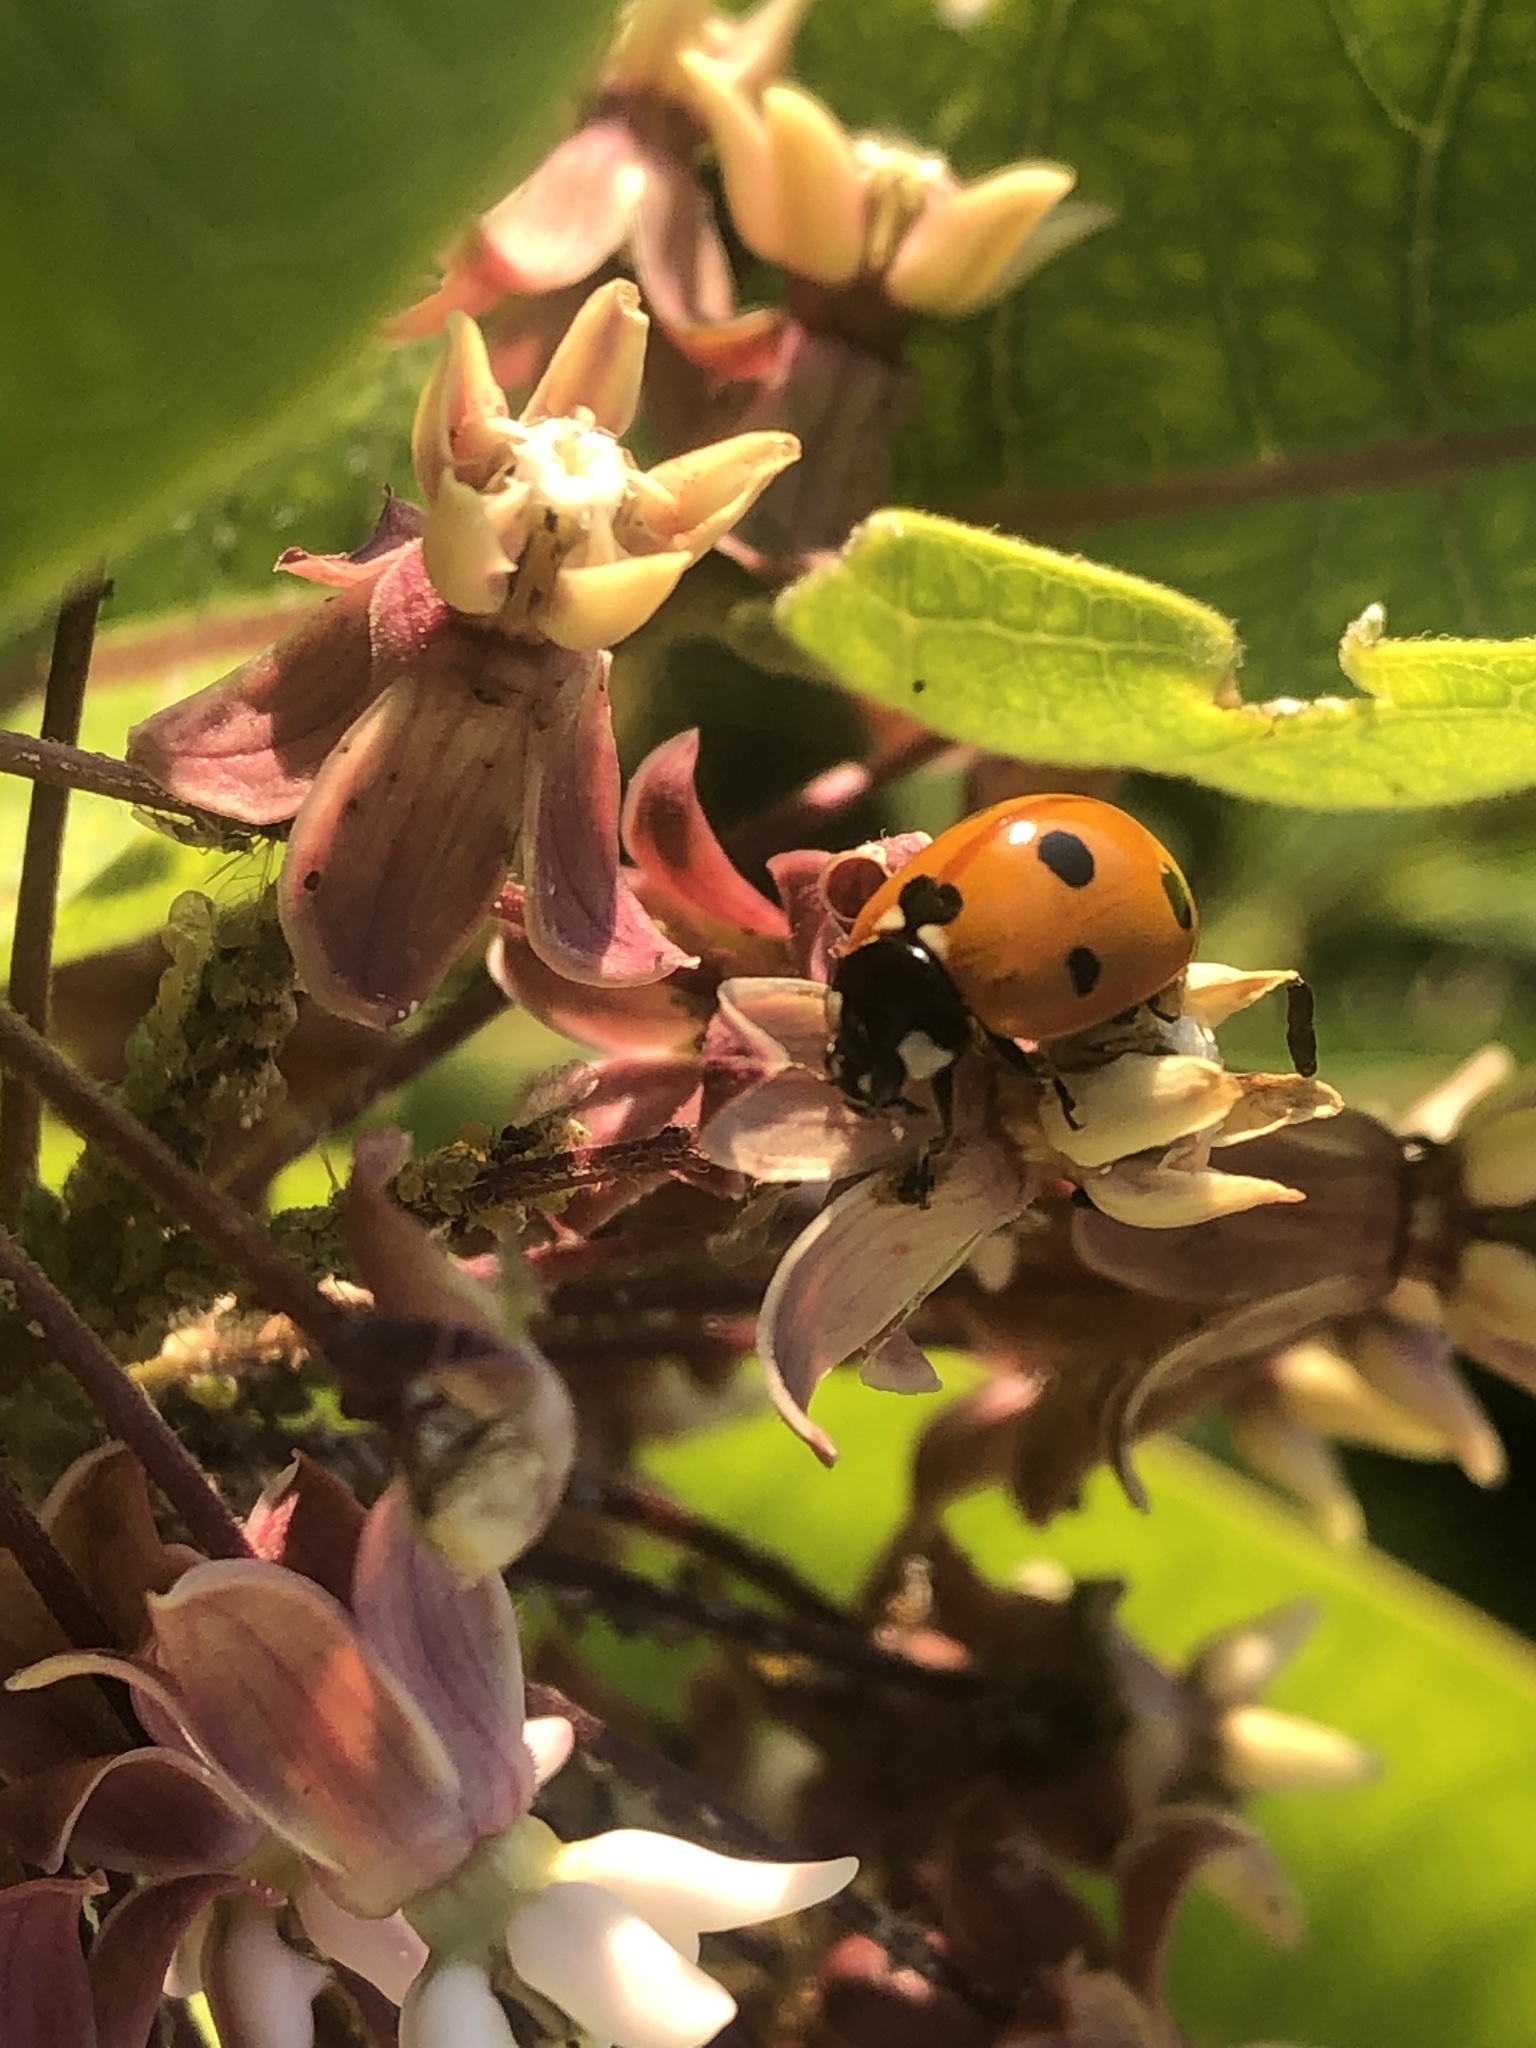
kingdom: Animalia
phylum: Arthropoda
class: Insecta
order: Coleoptera
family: Coccinellidae
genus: Coccinella
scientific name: Coccinella septempunctata
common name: Sevenspotted lady beetle
